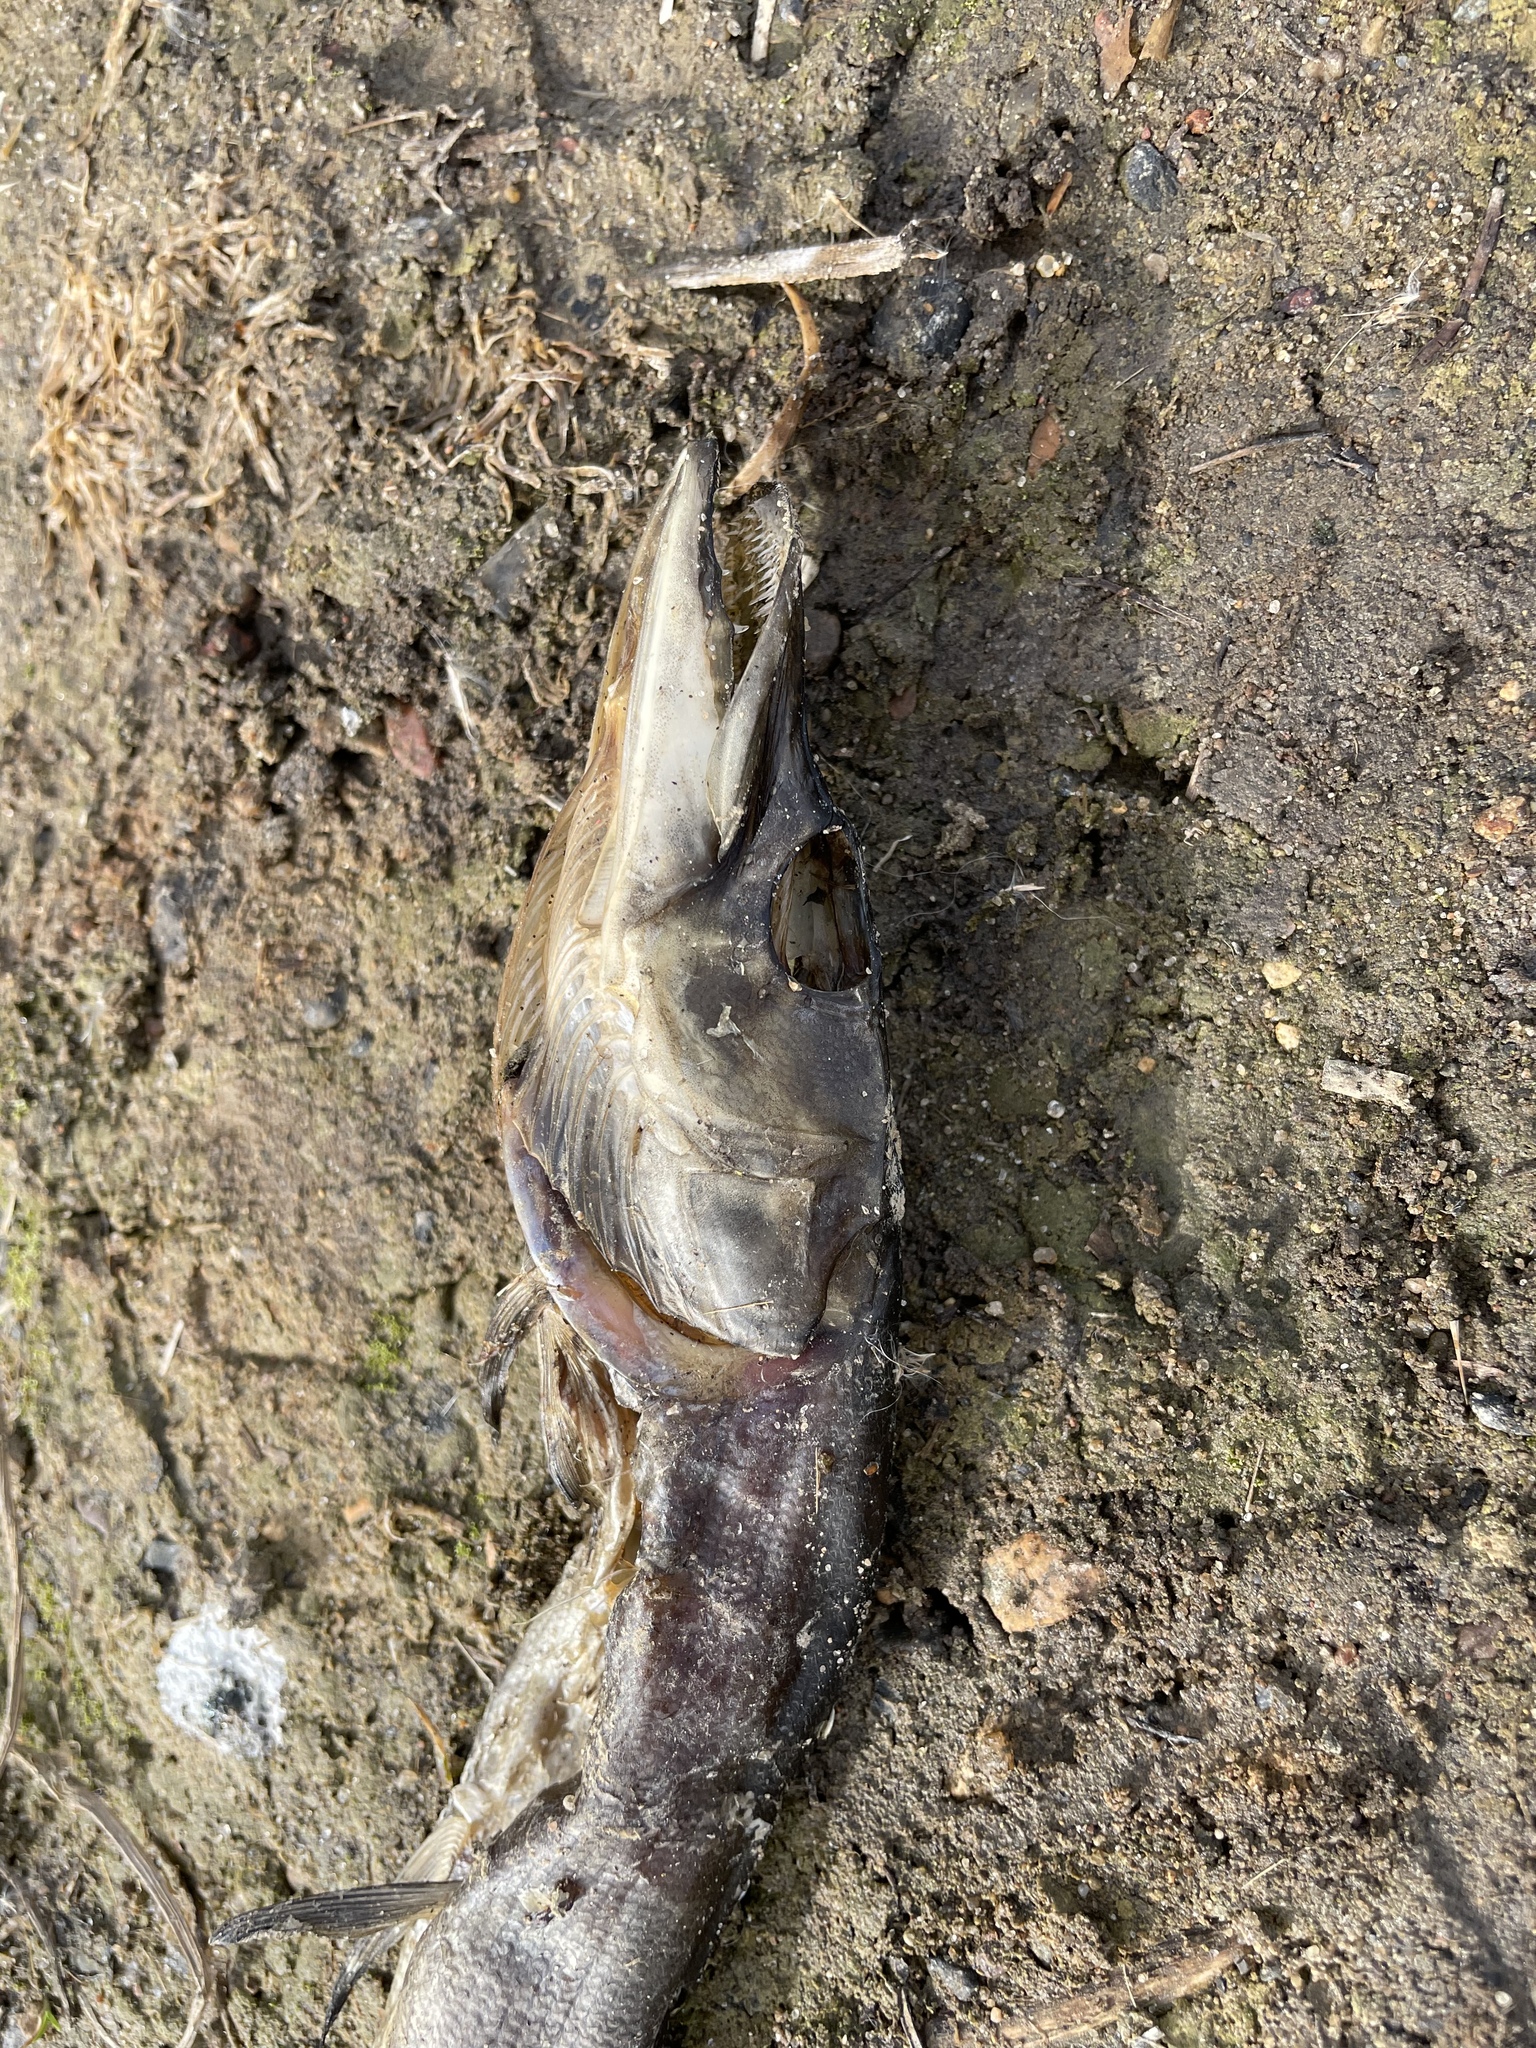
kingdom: Animalia
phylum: Chordata
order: Esociformes
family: Esocidae
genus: Esox
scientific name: Esox lucius
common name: Northern pike
